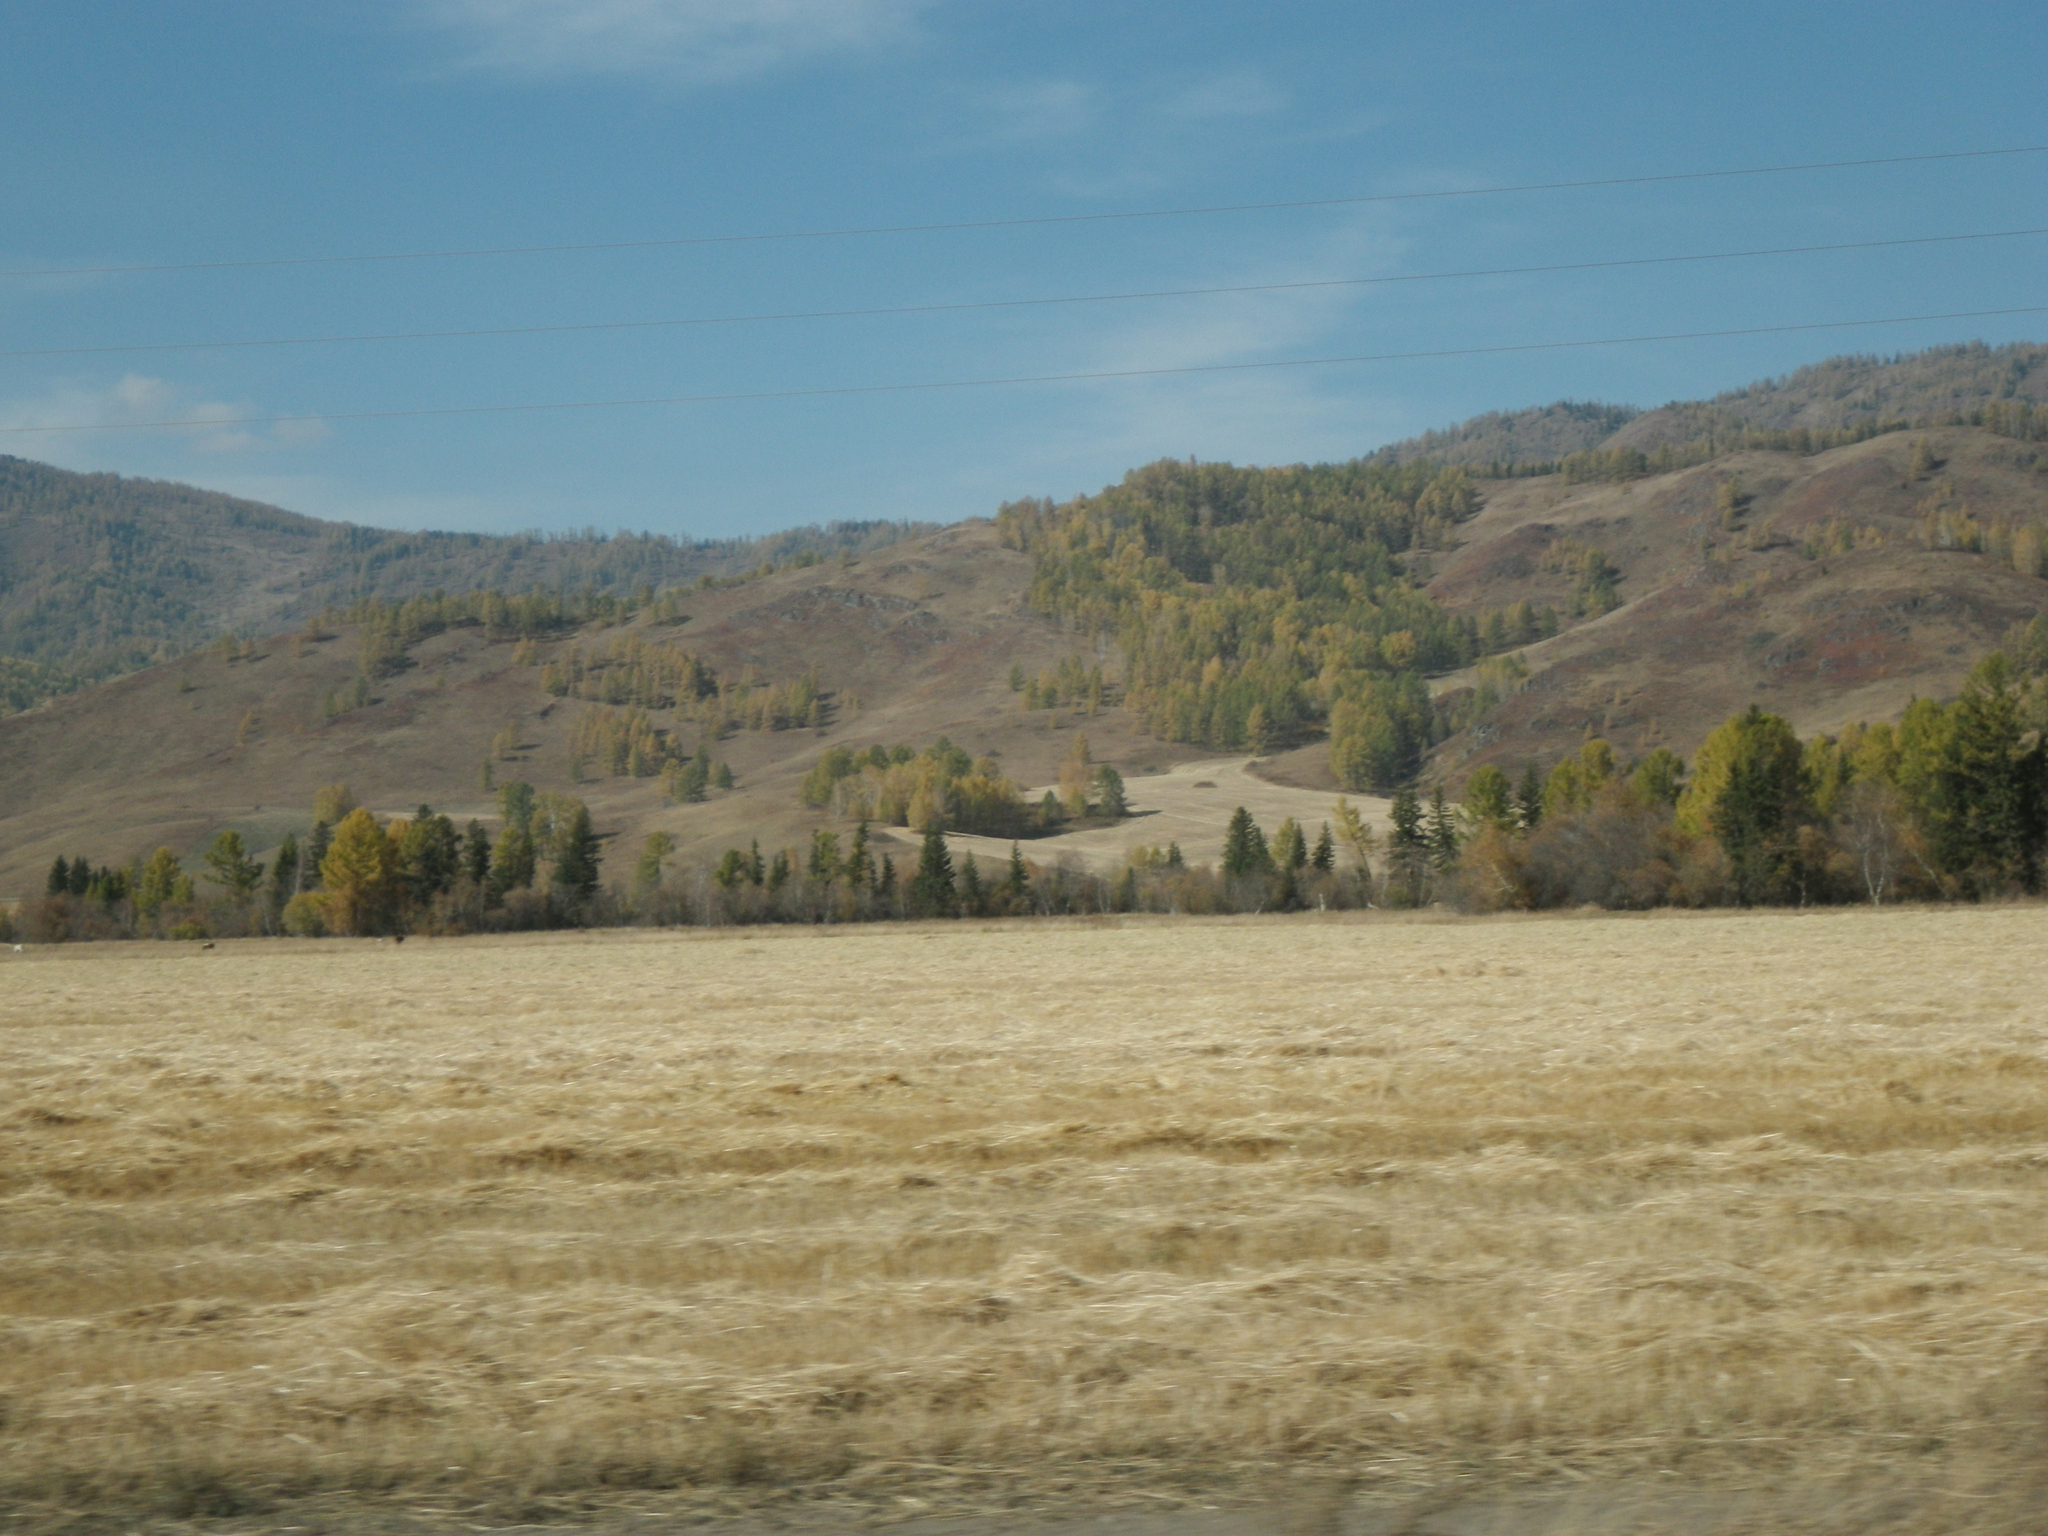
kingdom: Plantae
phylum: Tracheophyta
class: Pinopsida
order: Pinales
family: Pinaceae
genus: Picea
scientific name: Picea obovata
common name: Siberian spruce
